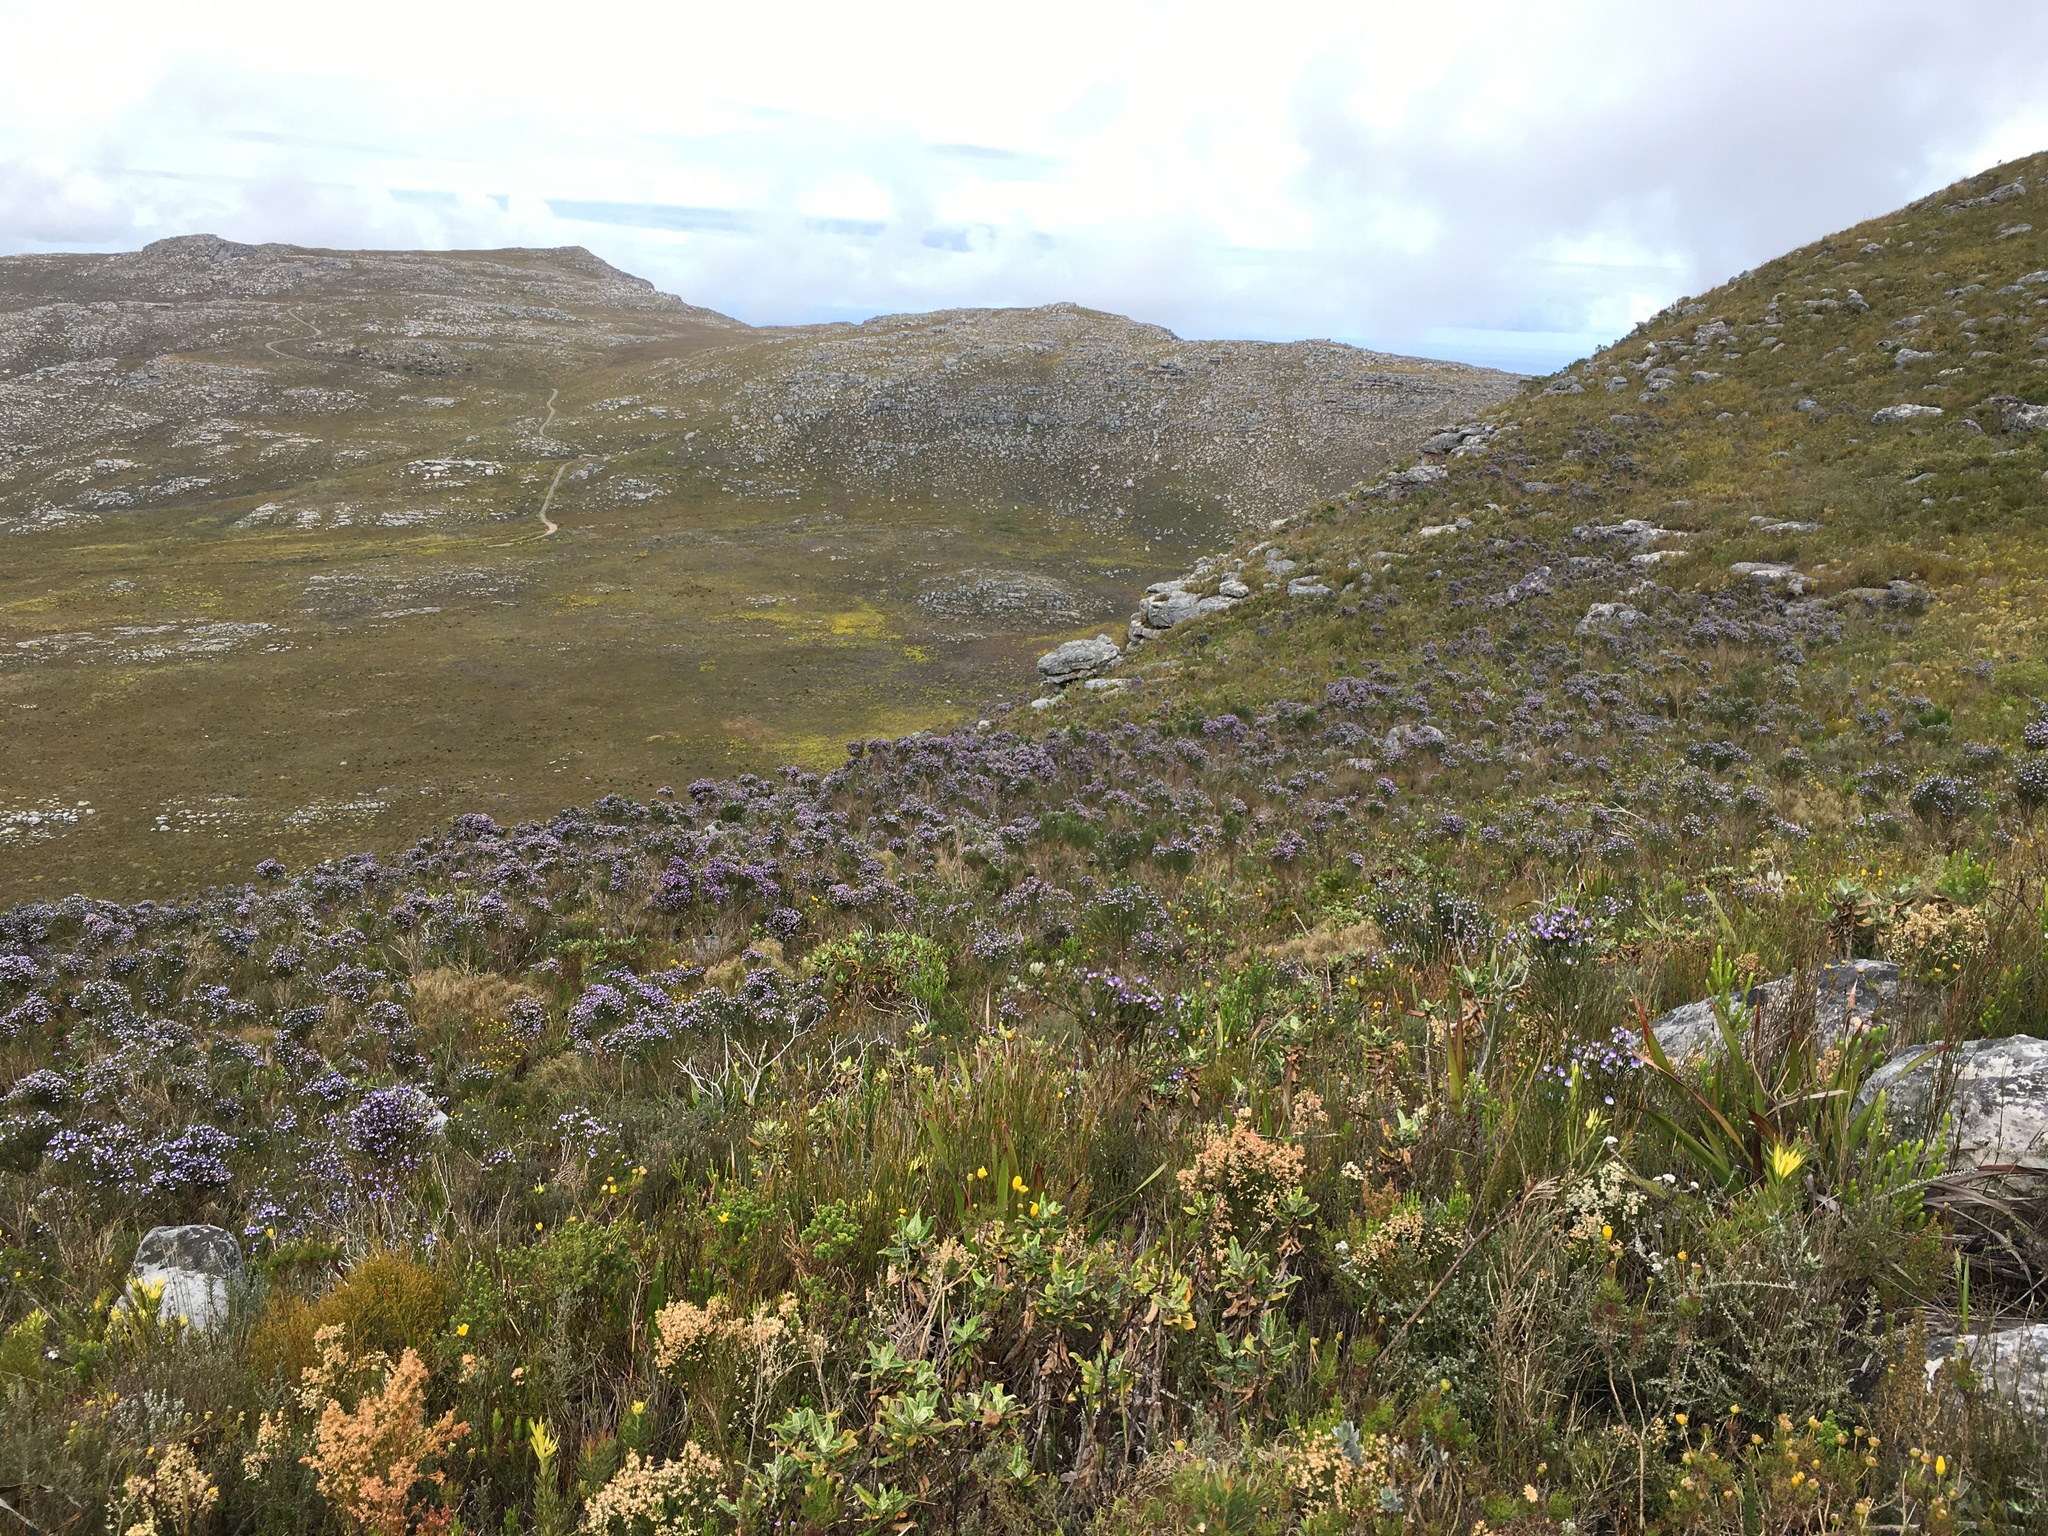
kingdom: Plantae
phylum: Tracheophyta
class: Magnoliopsida
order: Fabales
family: Fabaceae
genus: Psoralea
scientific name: Psoralea congesta
